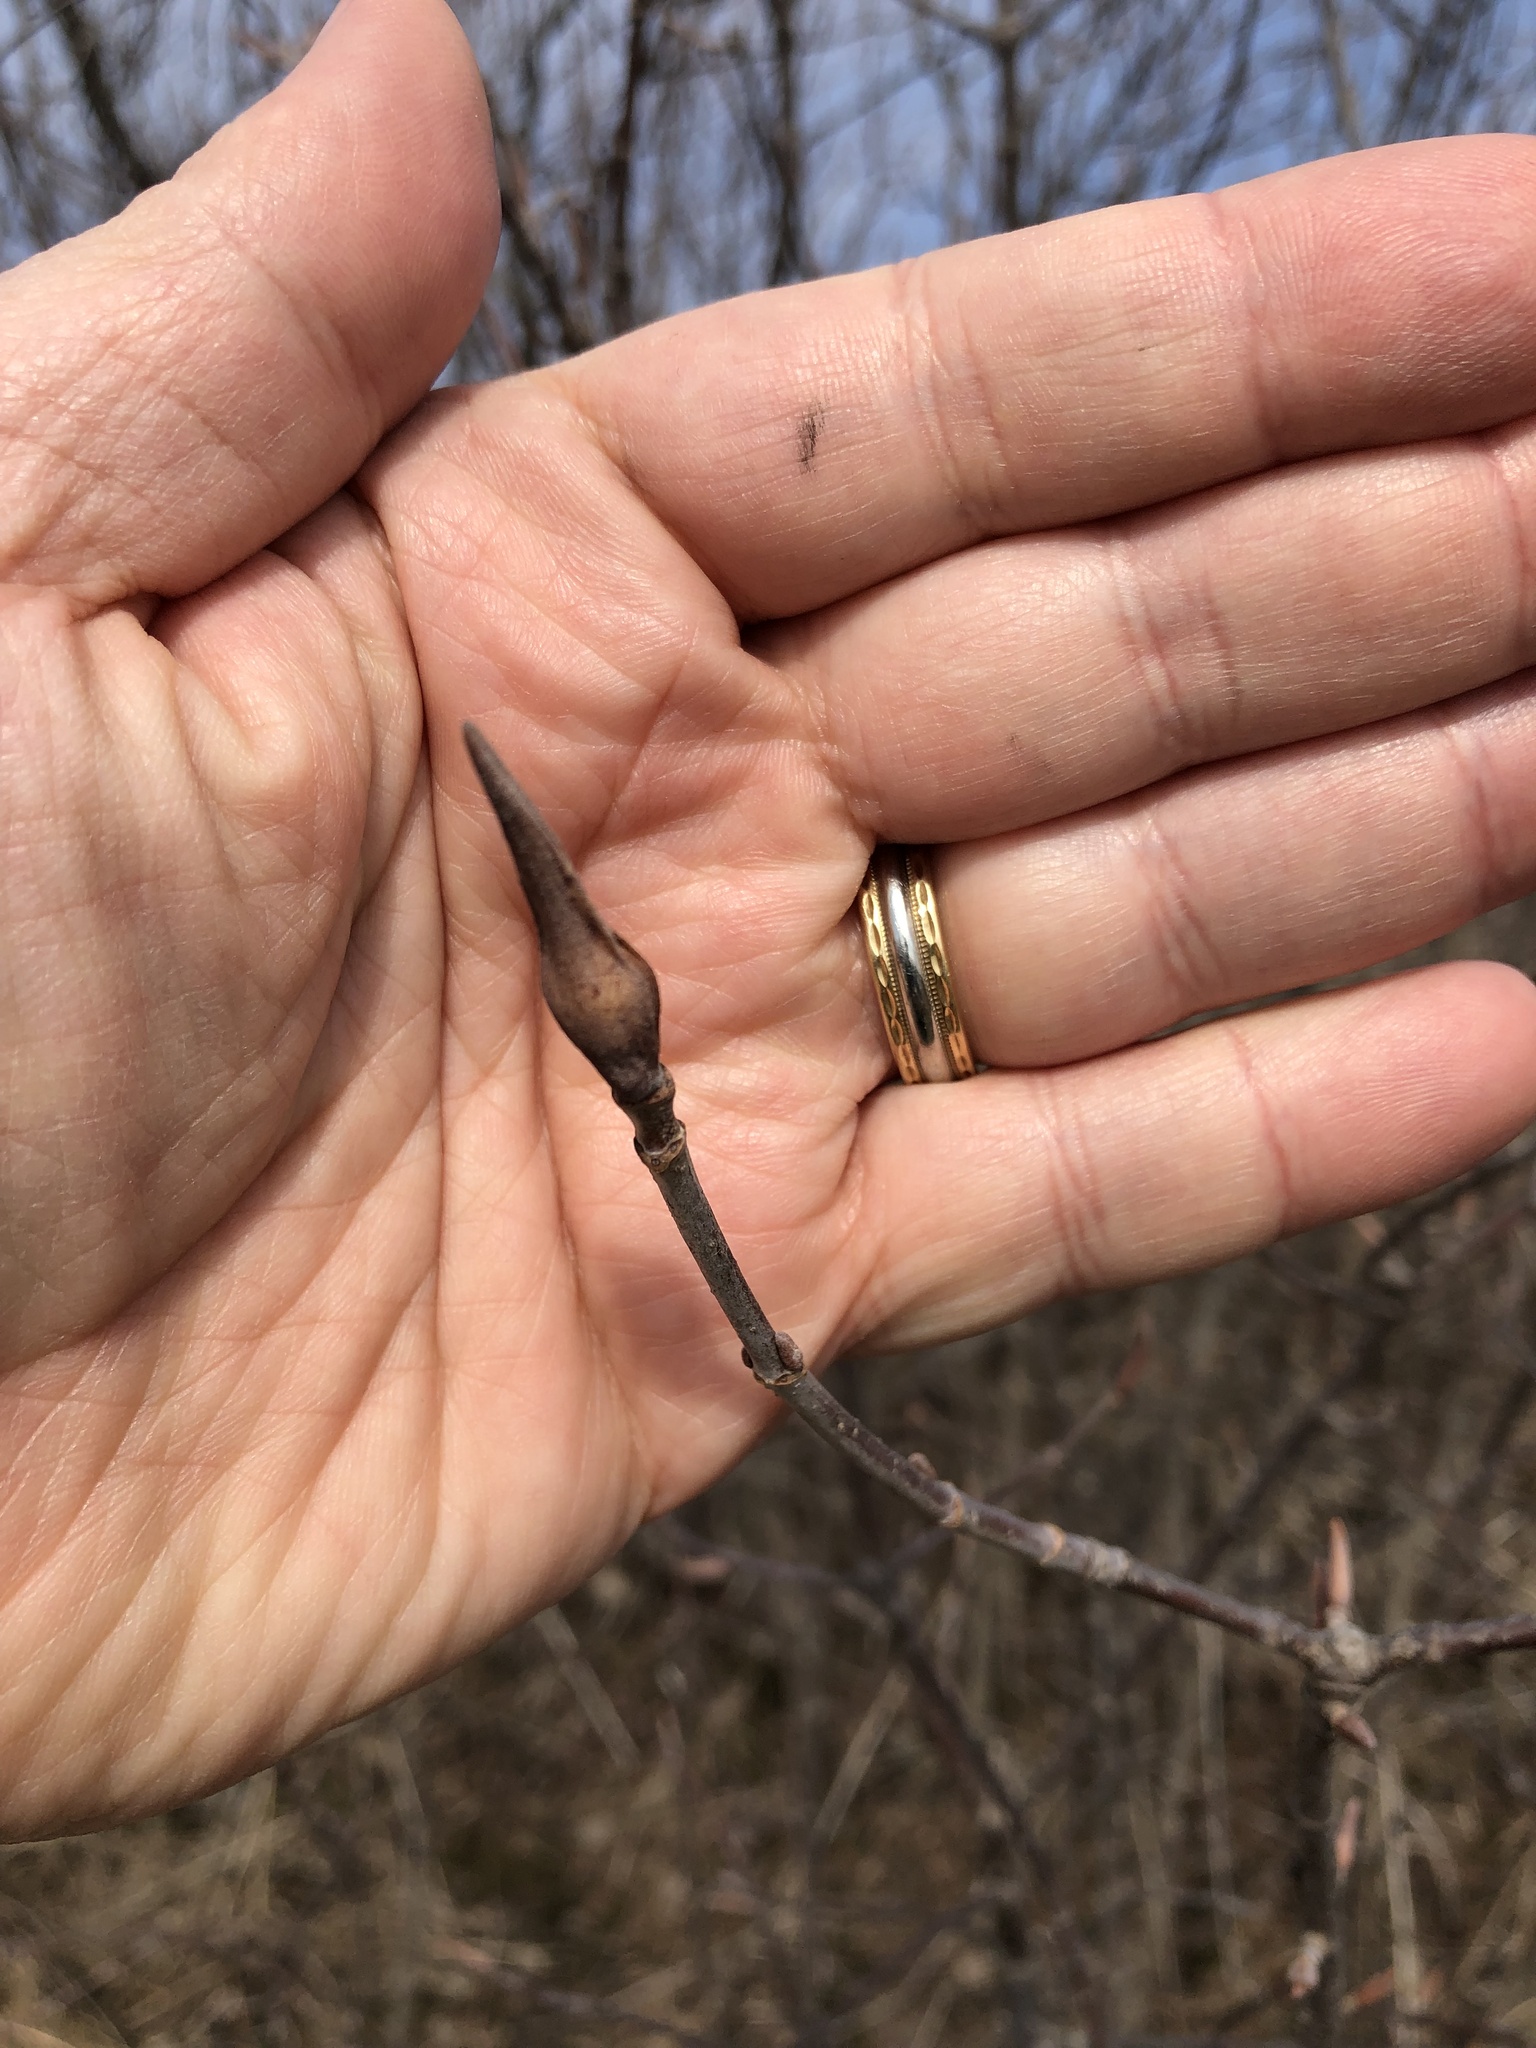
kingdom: Plantae
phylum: Tracheophyta
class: Magnoliopsida
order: Dipsacales
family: Viburnaceae
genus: Viburnum
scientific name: Viburnum lentago
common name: Black haw
